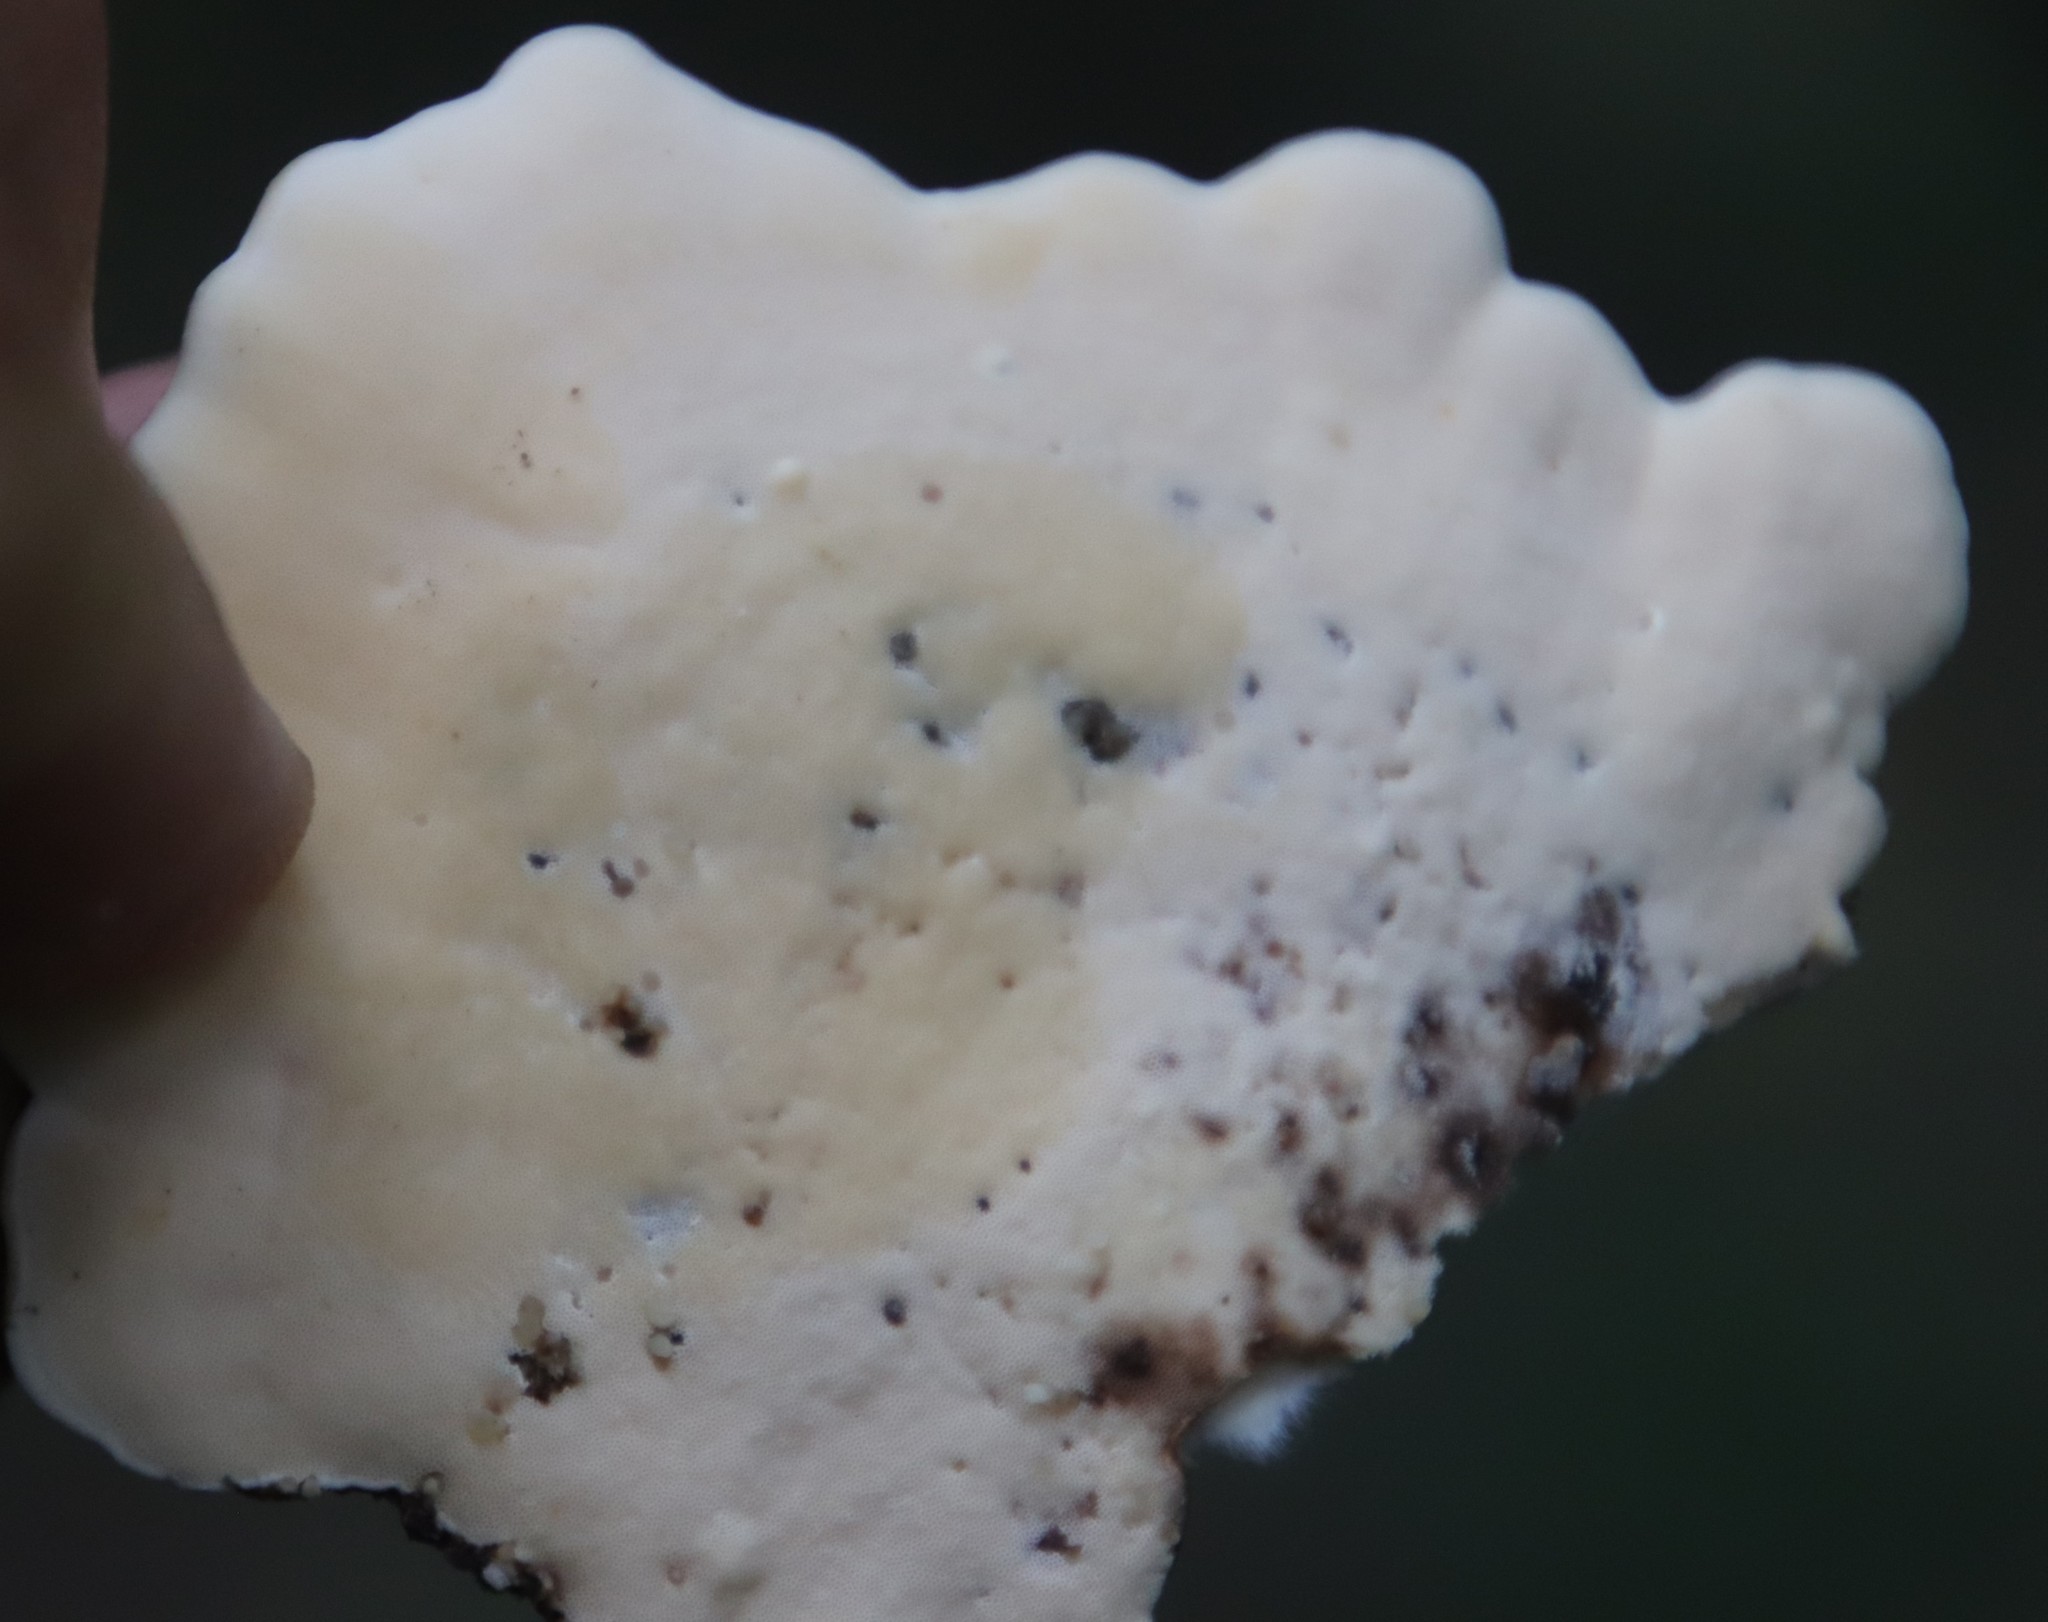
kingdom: Fungi
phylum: Basidiomycota
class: Agaricomycetes
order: Polyporales
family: Polyporaceae
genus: Microporus
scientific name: Microporus affinis
